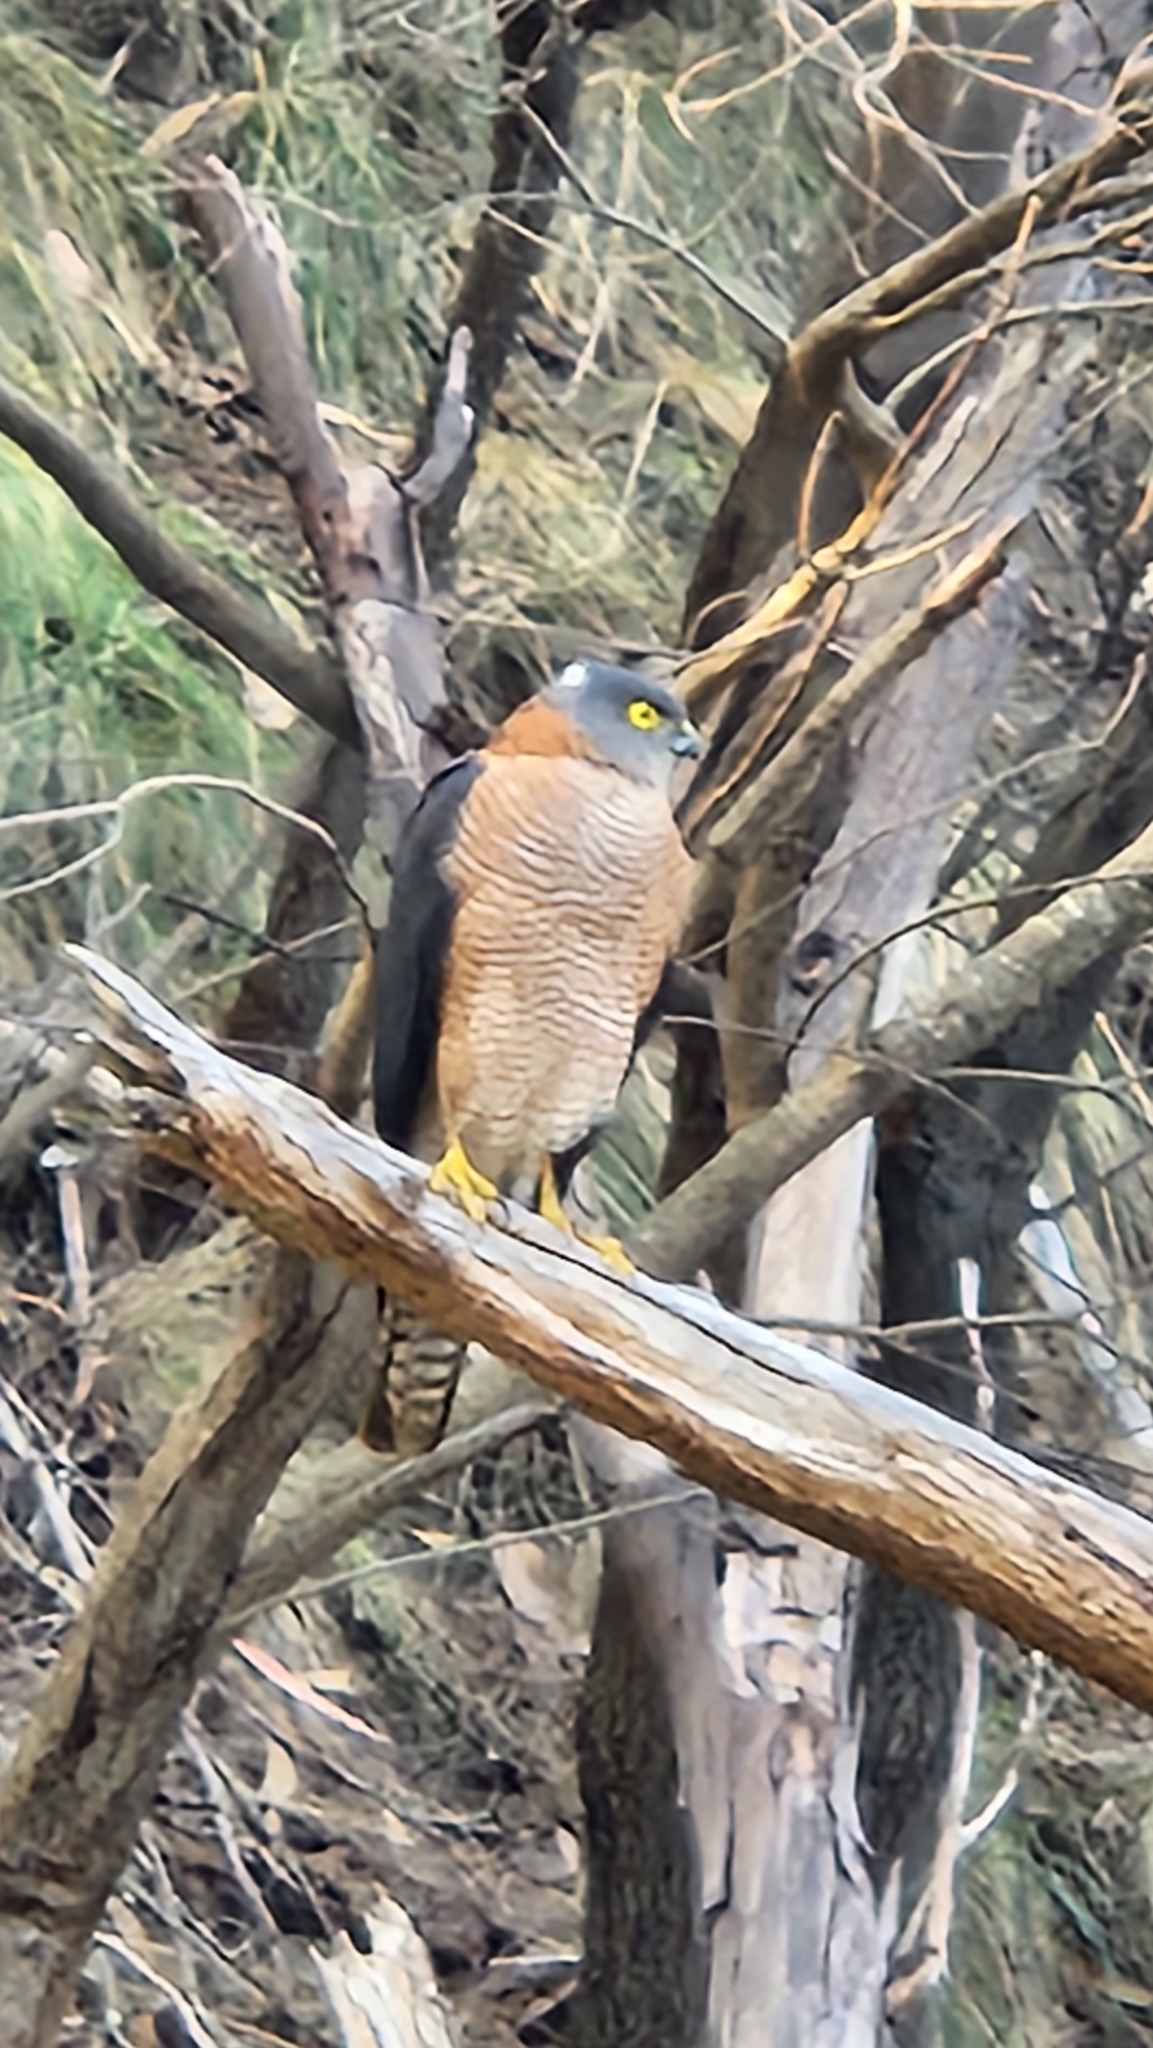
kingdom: Animalia
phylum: Chordata
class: Aves
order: Accipitriformes
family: Accipitridae
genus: Accipiter
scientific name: Accipiter cirrocephalus
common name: Collared sparrowhawk
